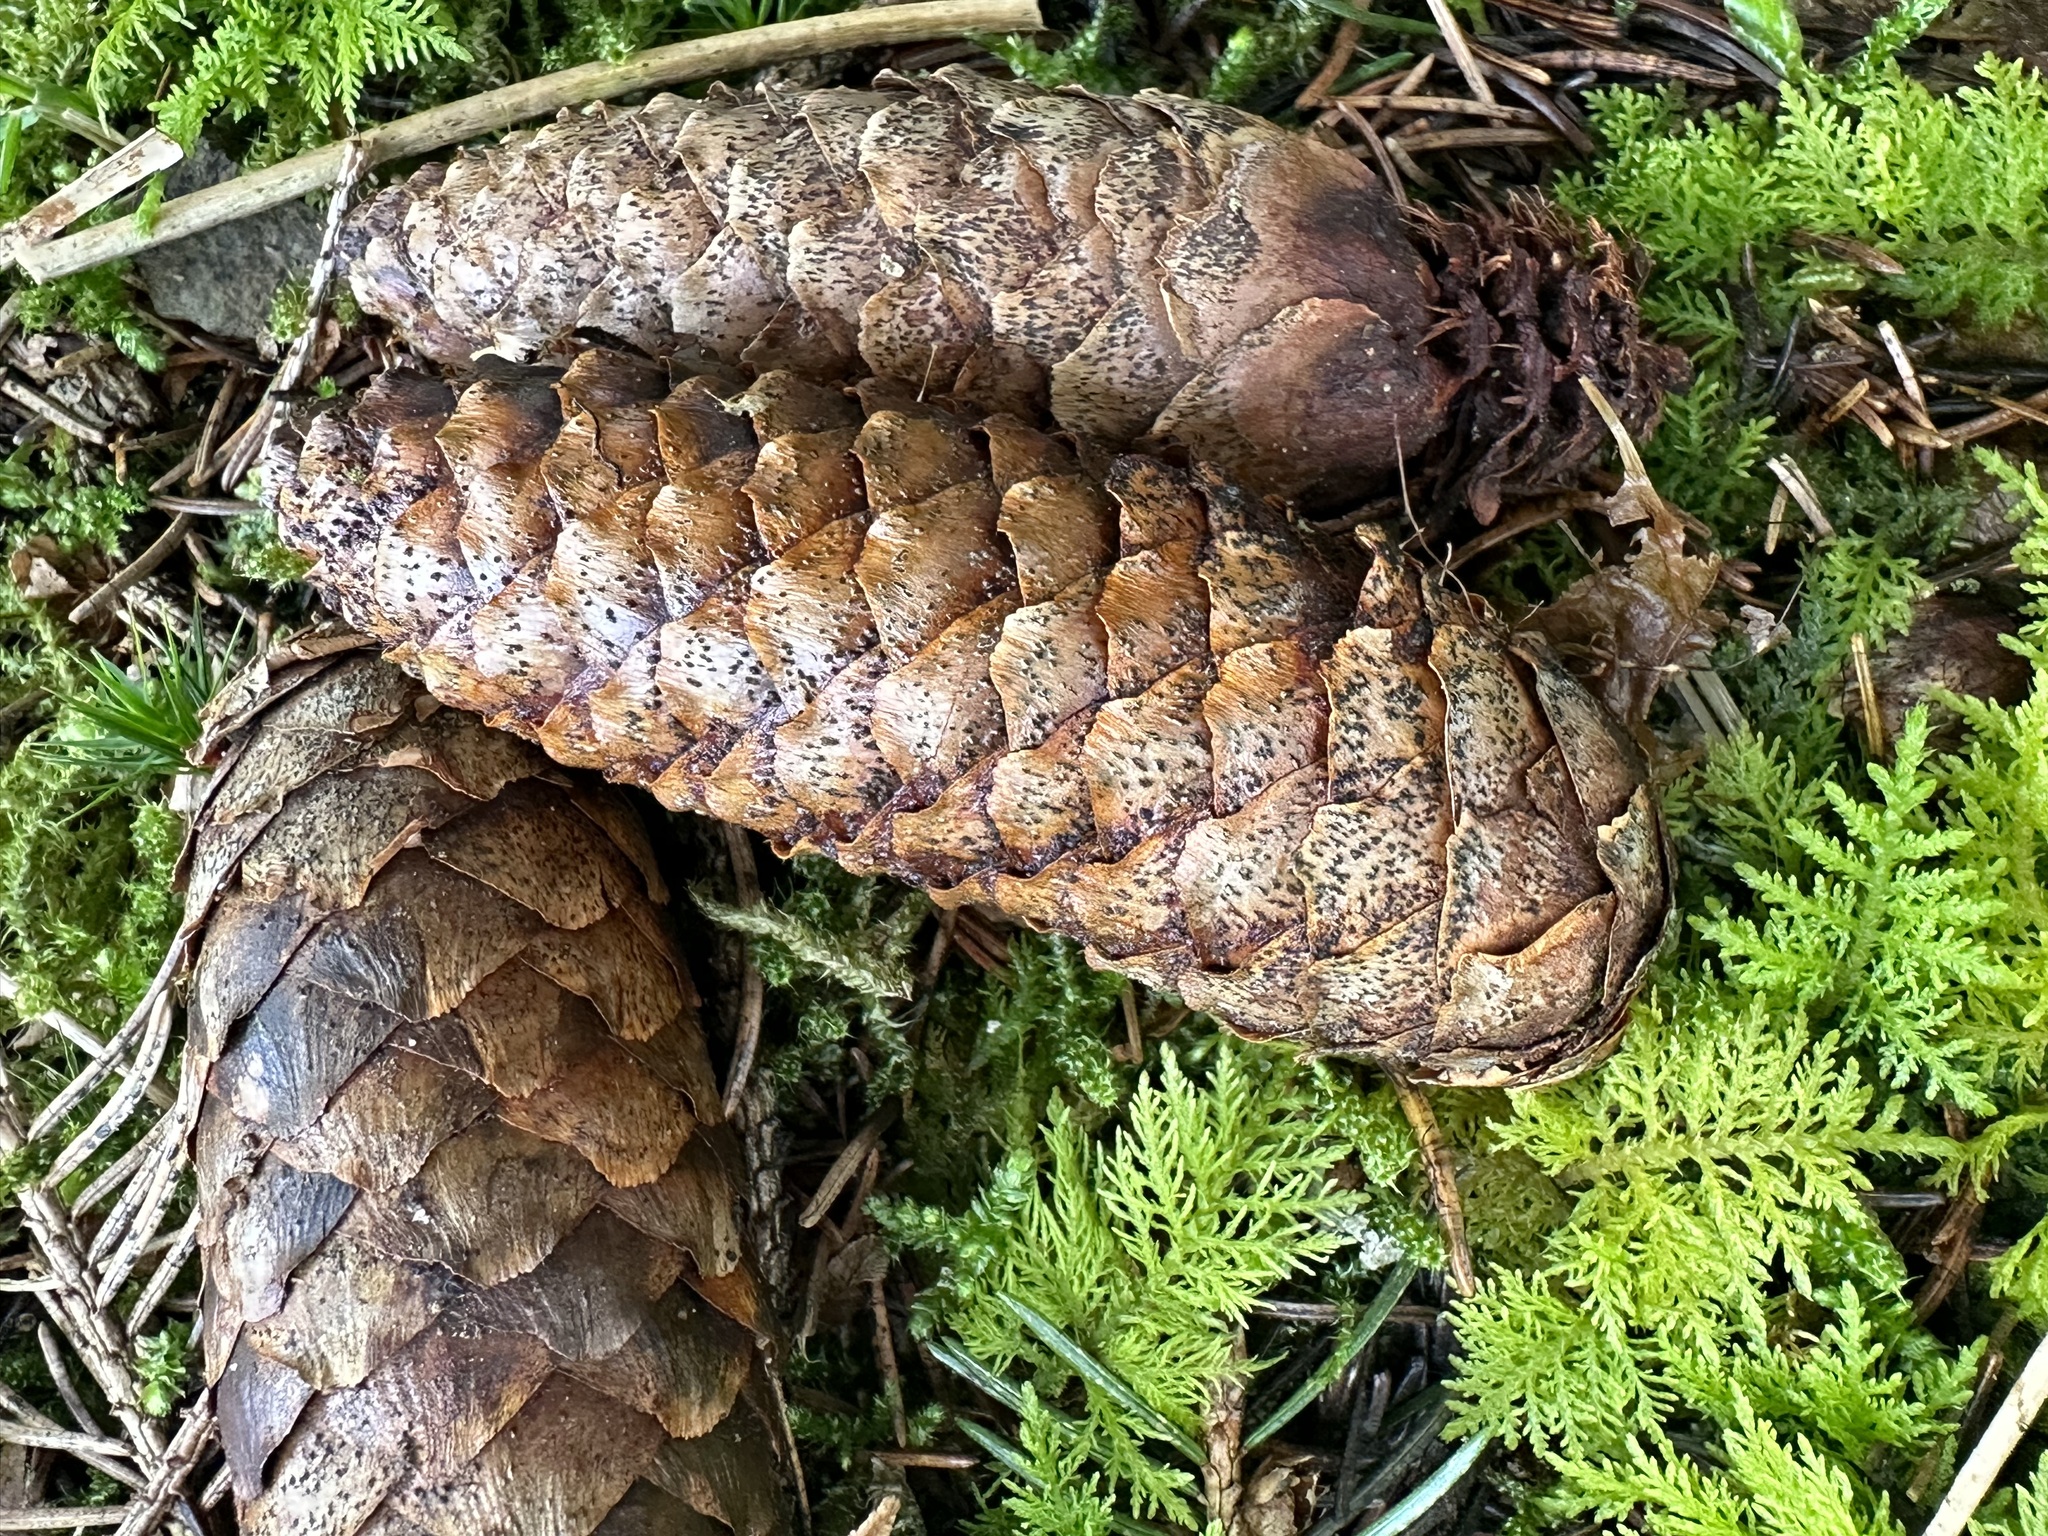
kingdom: Fungi
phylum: Ascomycota
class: Dothideomycetes
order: Pleosporales
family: Melanommataceae
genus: Phragmotrichum
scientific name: Phragmotrichum chailletii
